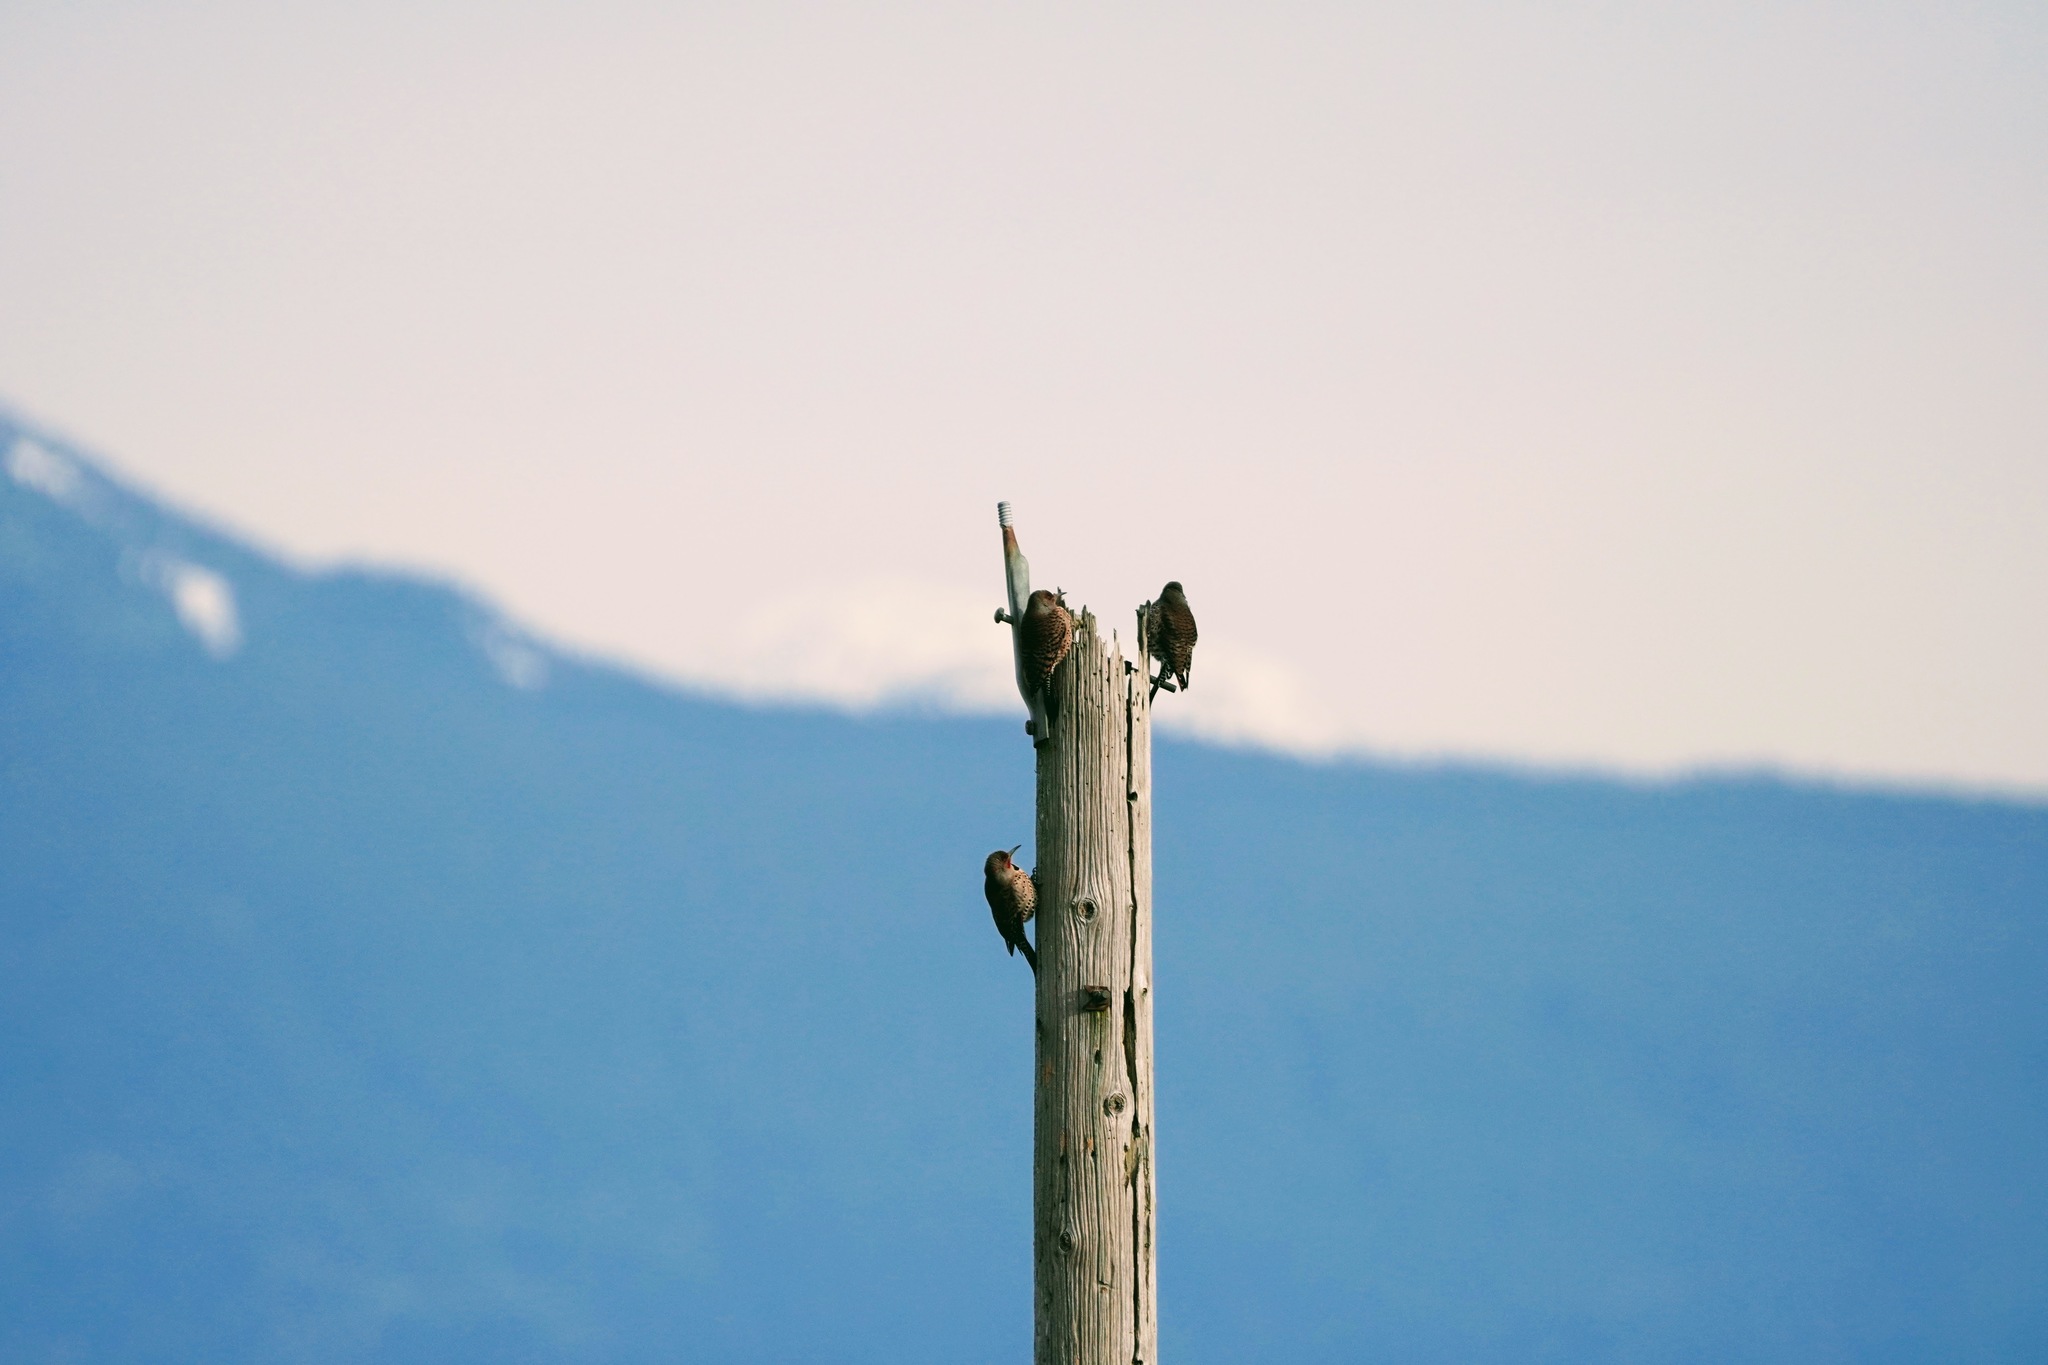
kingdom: Animalia
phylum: Chordata
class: Aves
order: Piciformes
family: Picidae
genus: Colaptes
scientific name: Colaptes auratus
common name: Northern flicker
